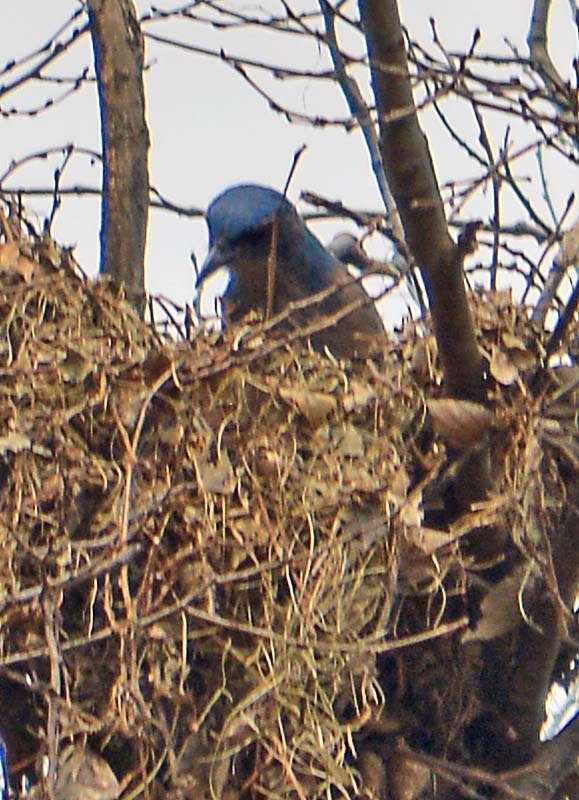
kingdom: Animalia
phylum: Chordata
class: Aves
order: Passeriformes
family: Corvidae
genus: Aphelocoma
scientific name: Aphelocoma woodhouseii
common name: Woodhouse's scrub-jay
